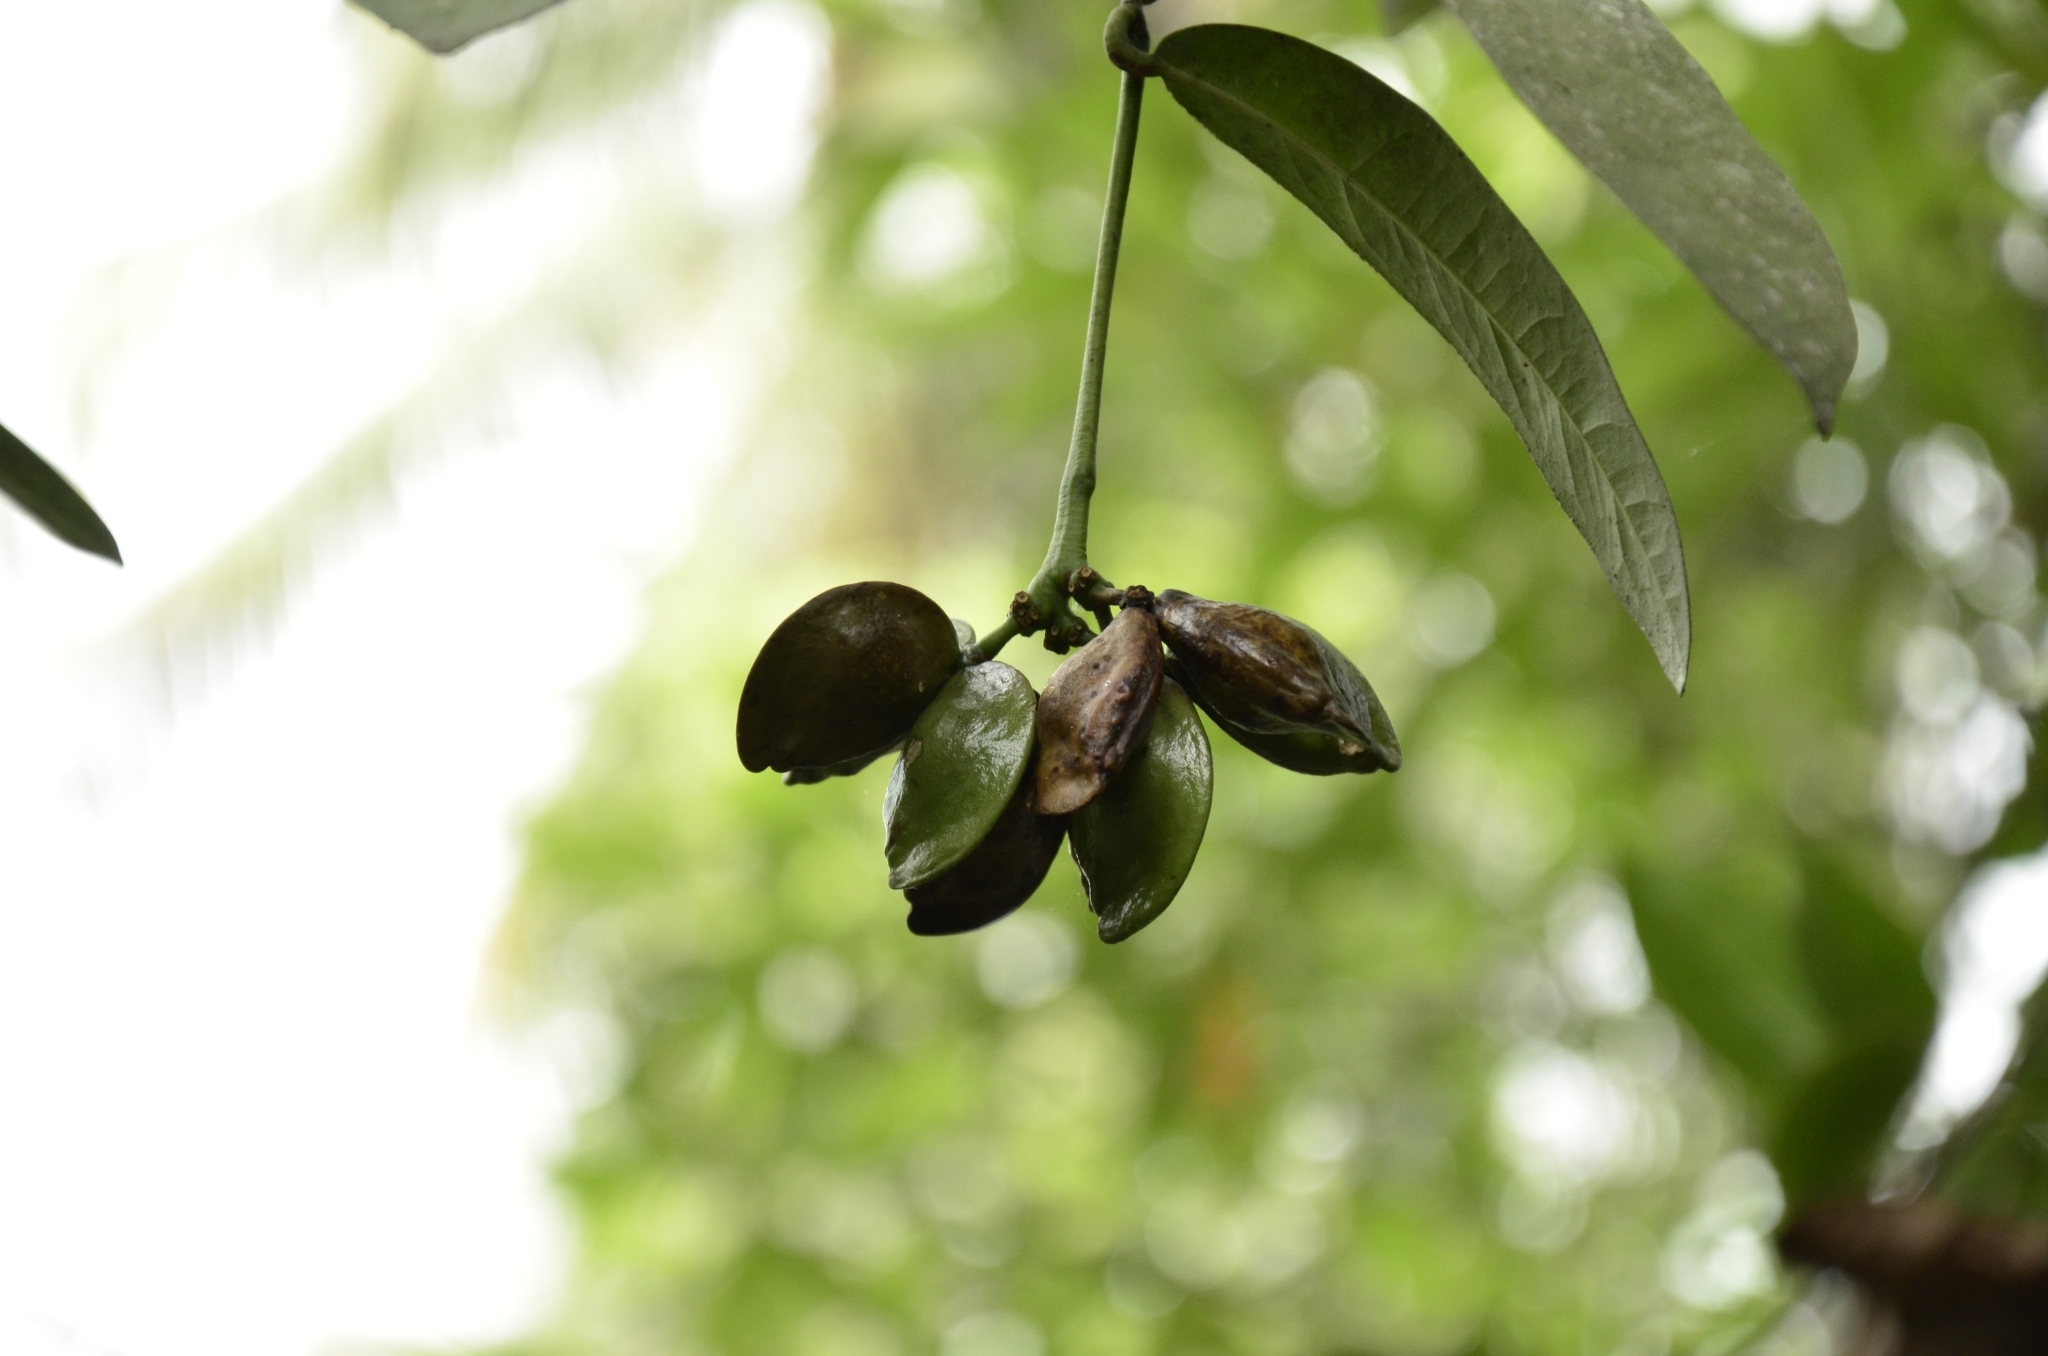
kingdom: Plantae
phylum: Tracheophyta
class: Magnoliopsida
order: Sapindales
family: Simaroubaceae
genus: Samadera
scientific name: Samadera indica
